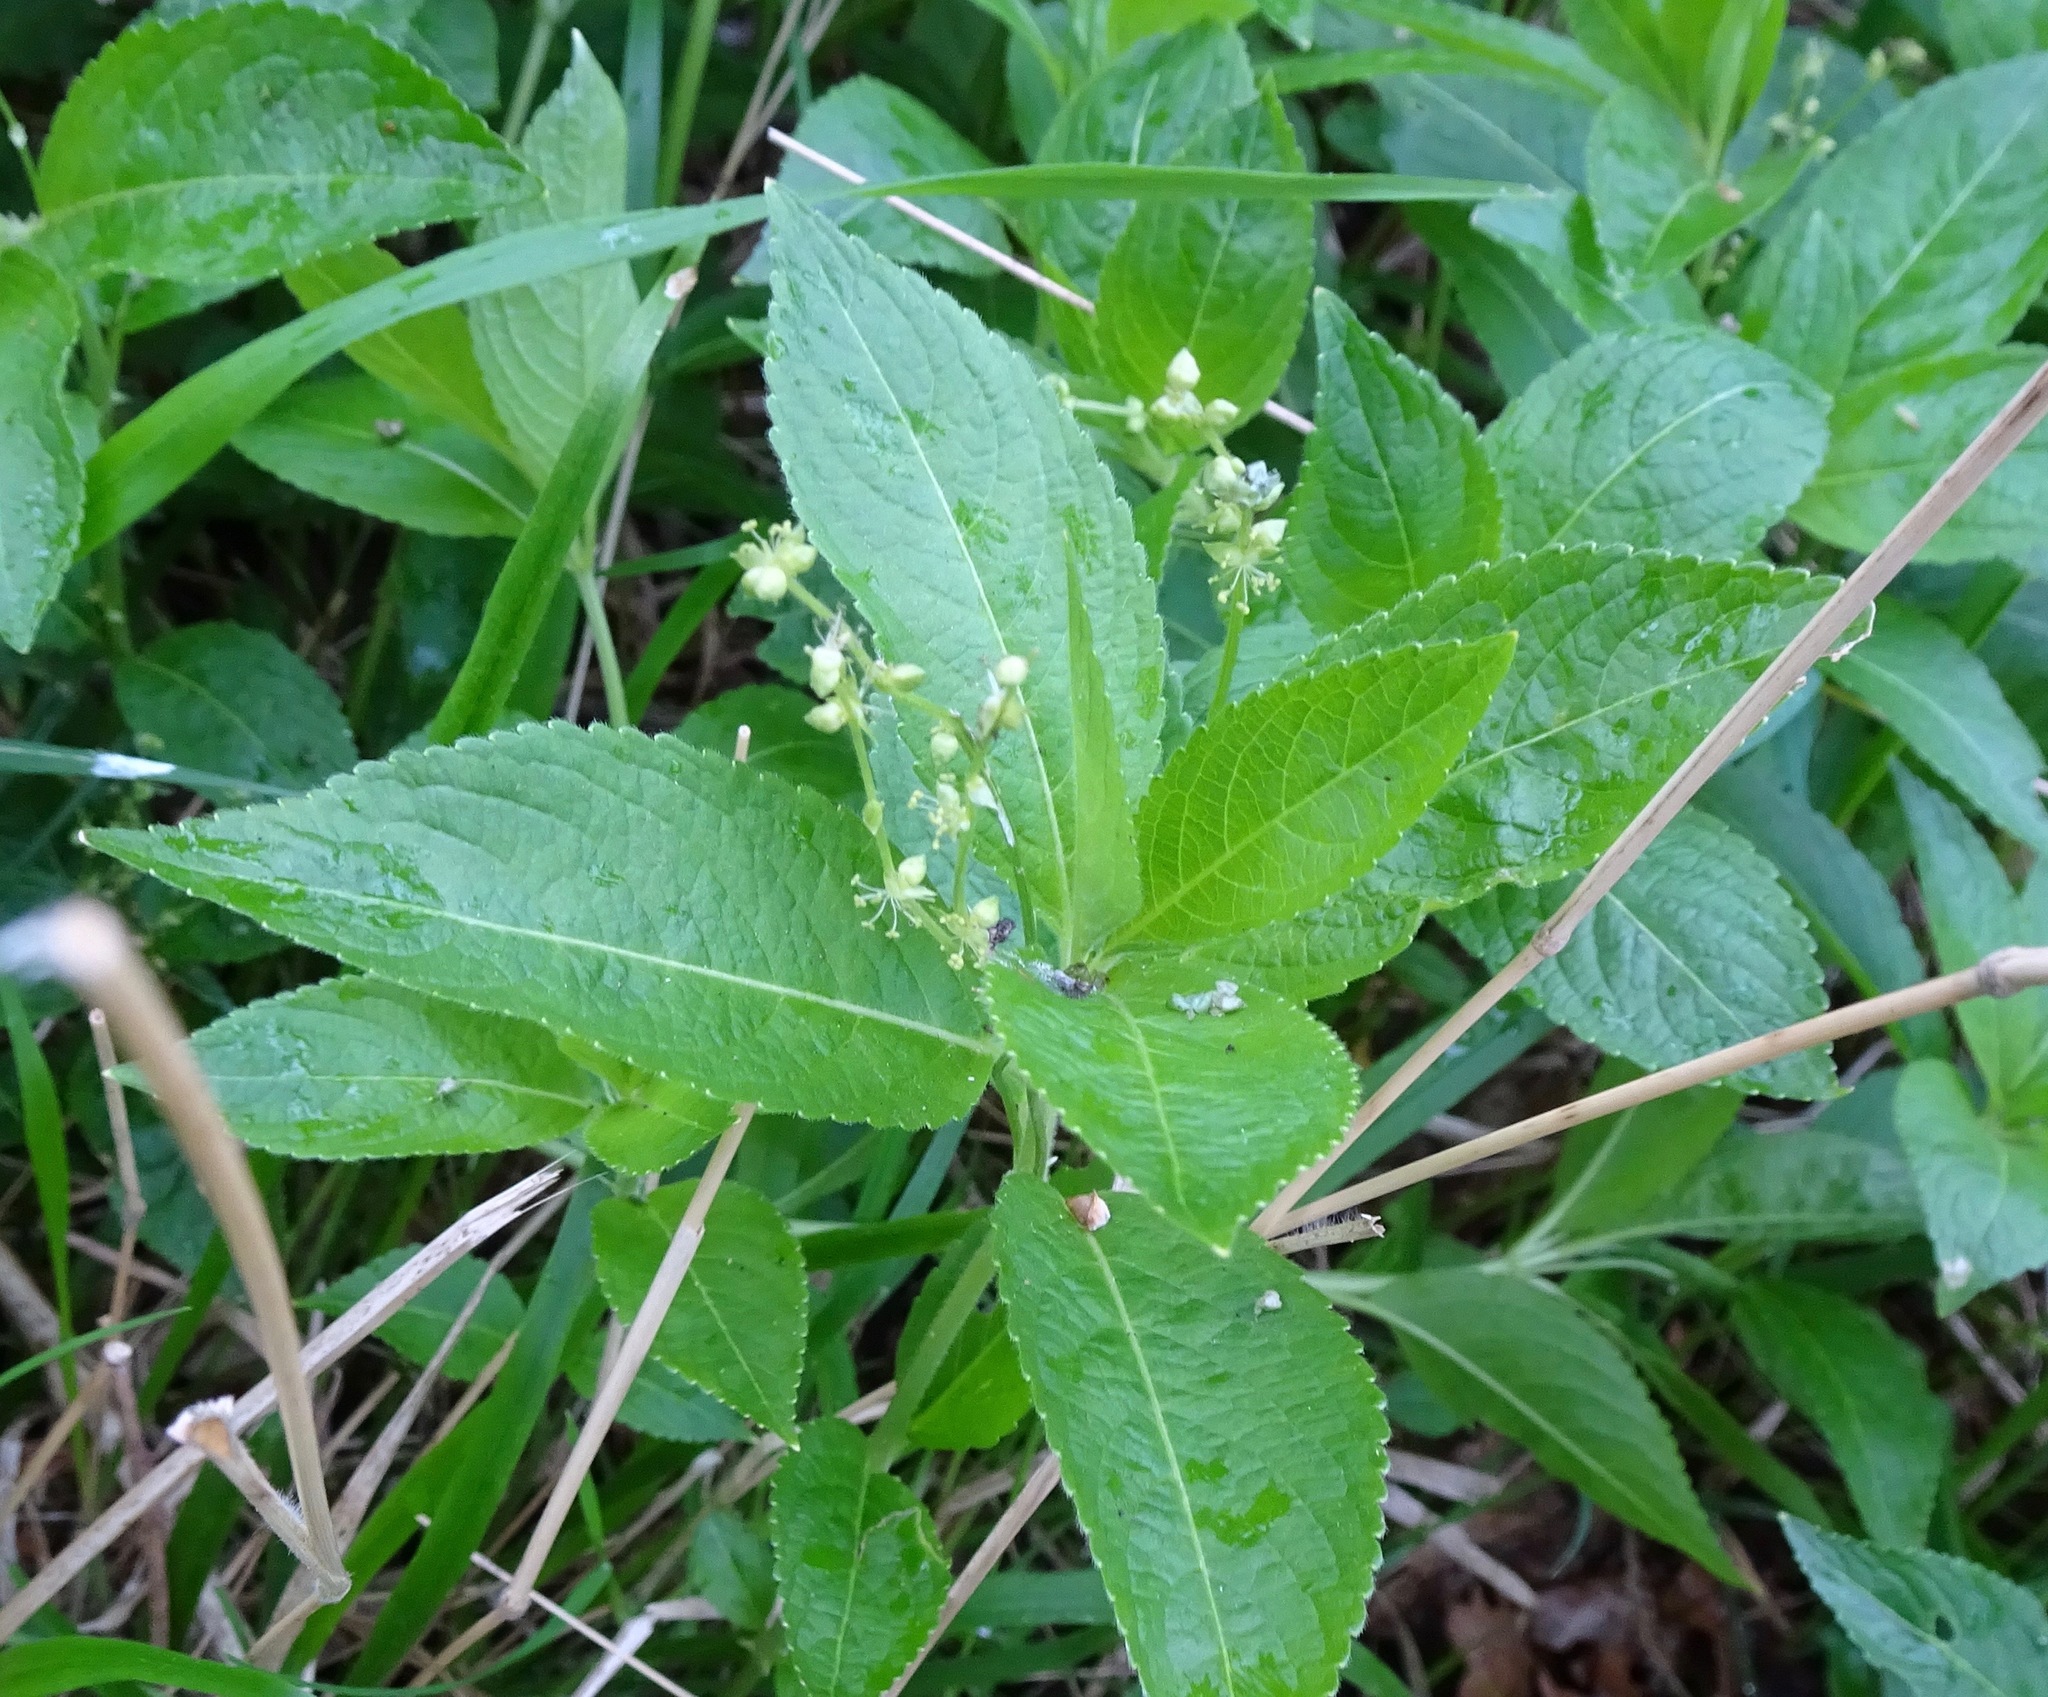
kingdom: Plantae
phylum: Tracheophyta
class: Magnoliopsida
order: Malpighiales
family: Euphorbiaceae
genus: Mercurialis
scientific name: Mercurialis perennis
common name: Dog mercury
